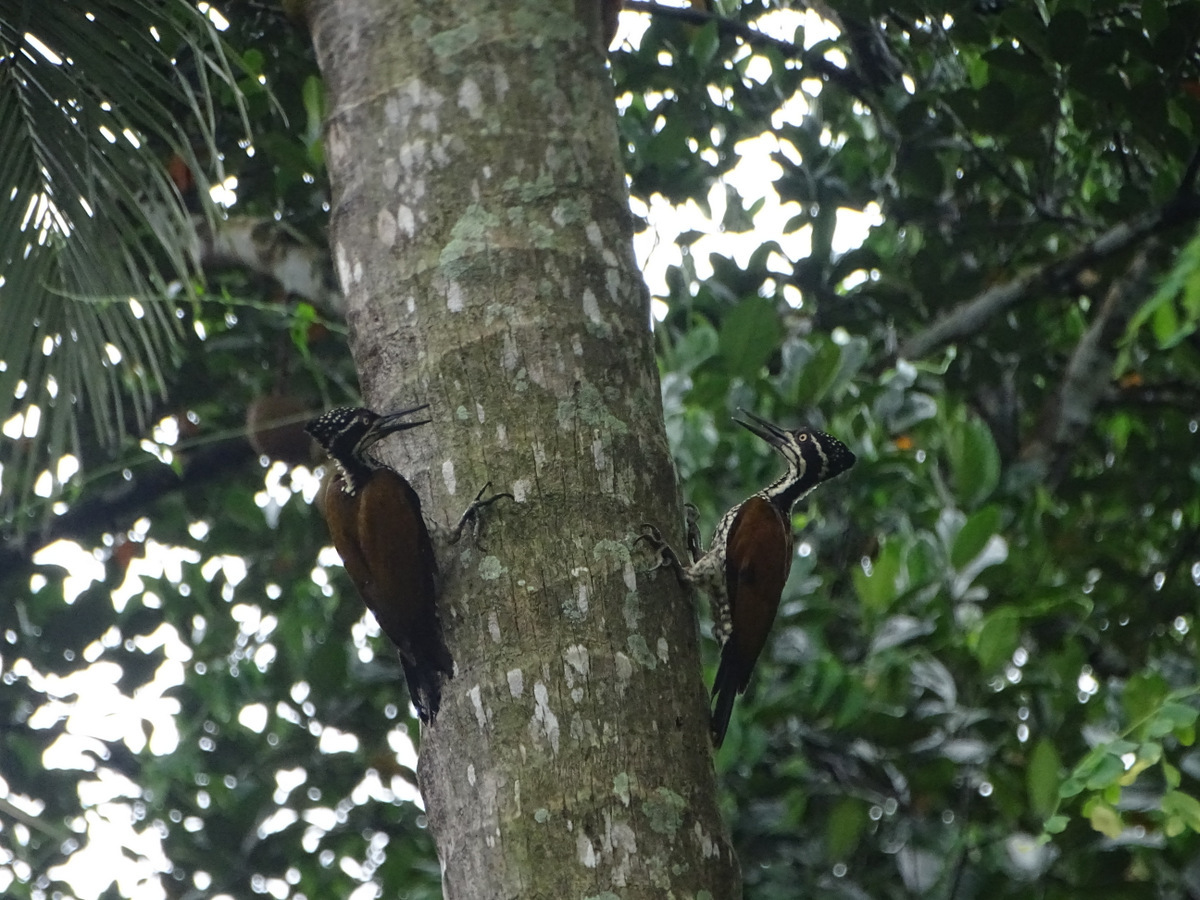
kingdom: Animalia
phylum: Chordata
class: Aves
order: Piciformes
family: Picidae
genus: Chrysocolaptes
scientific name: Chrysocolaptes socialis
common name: Malabar flameback
